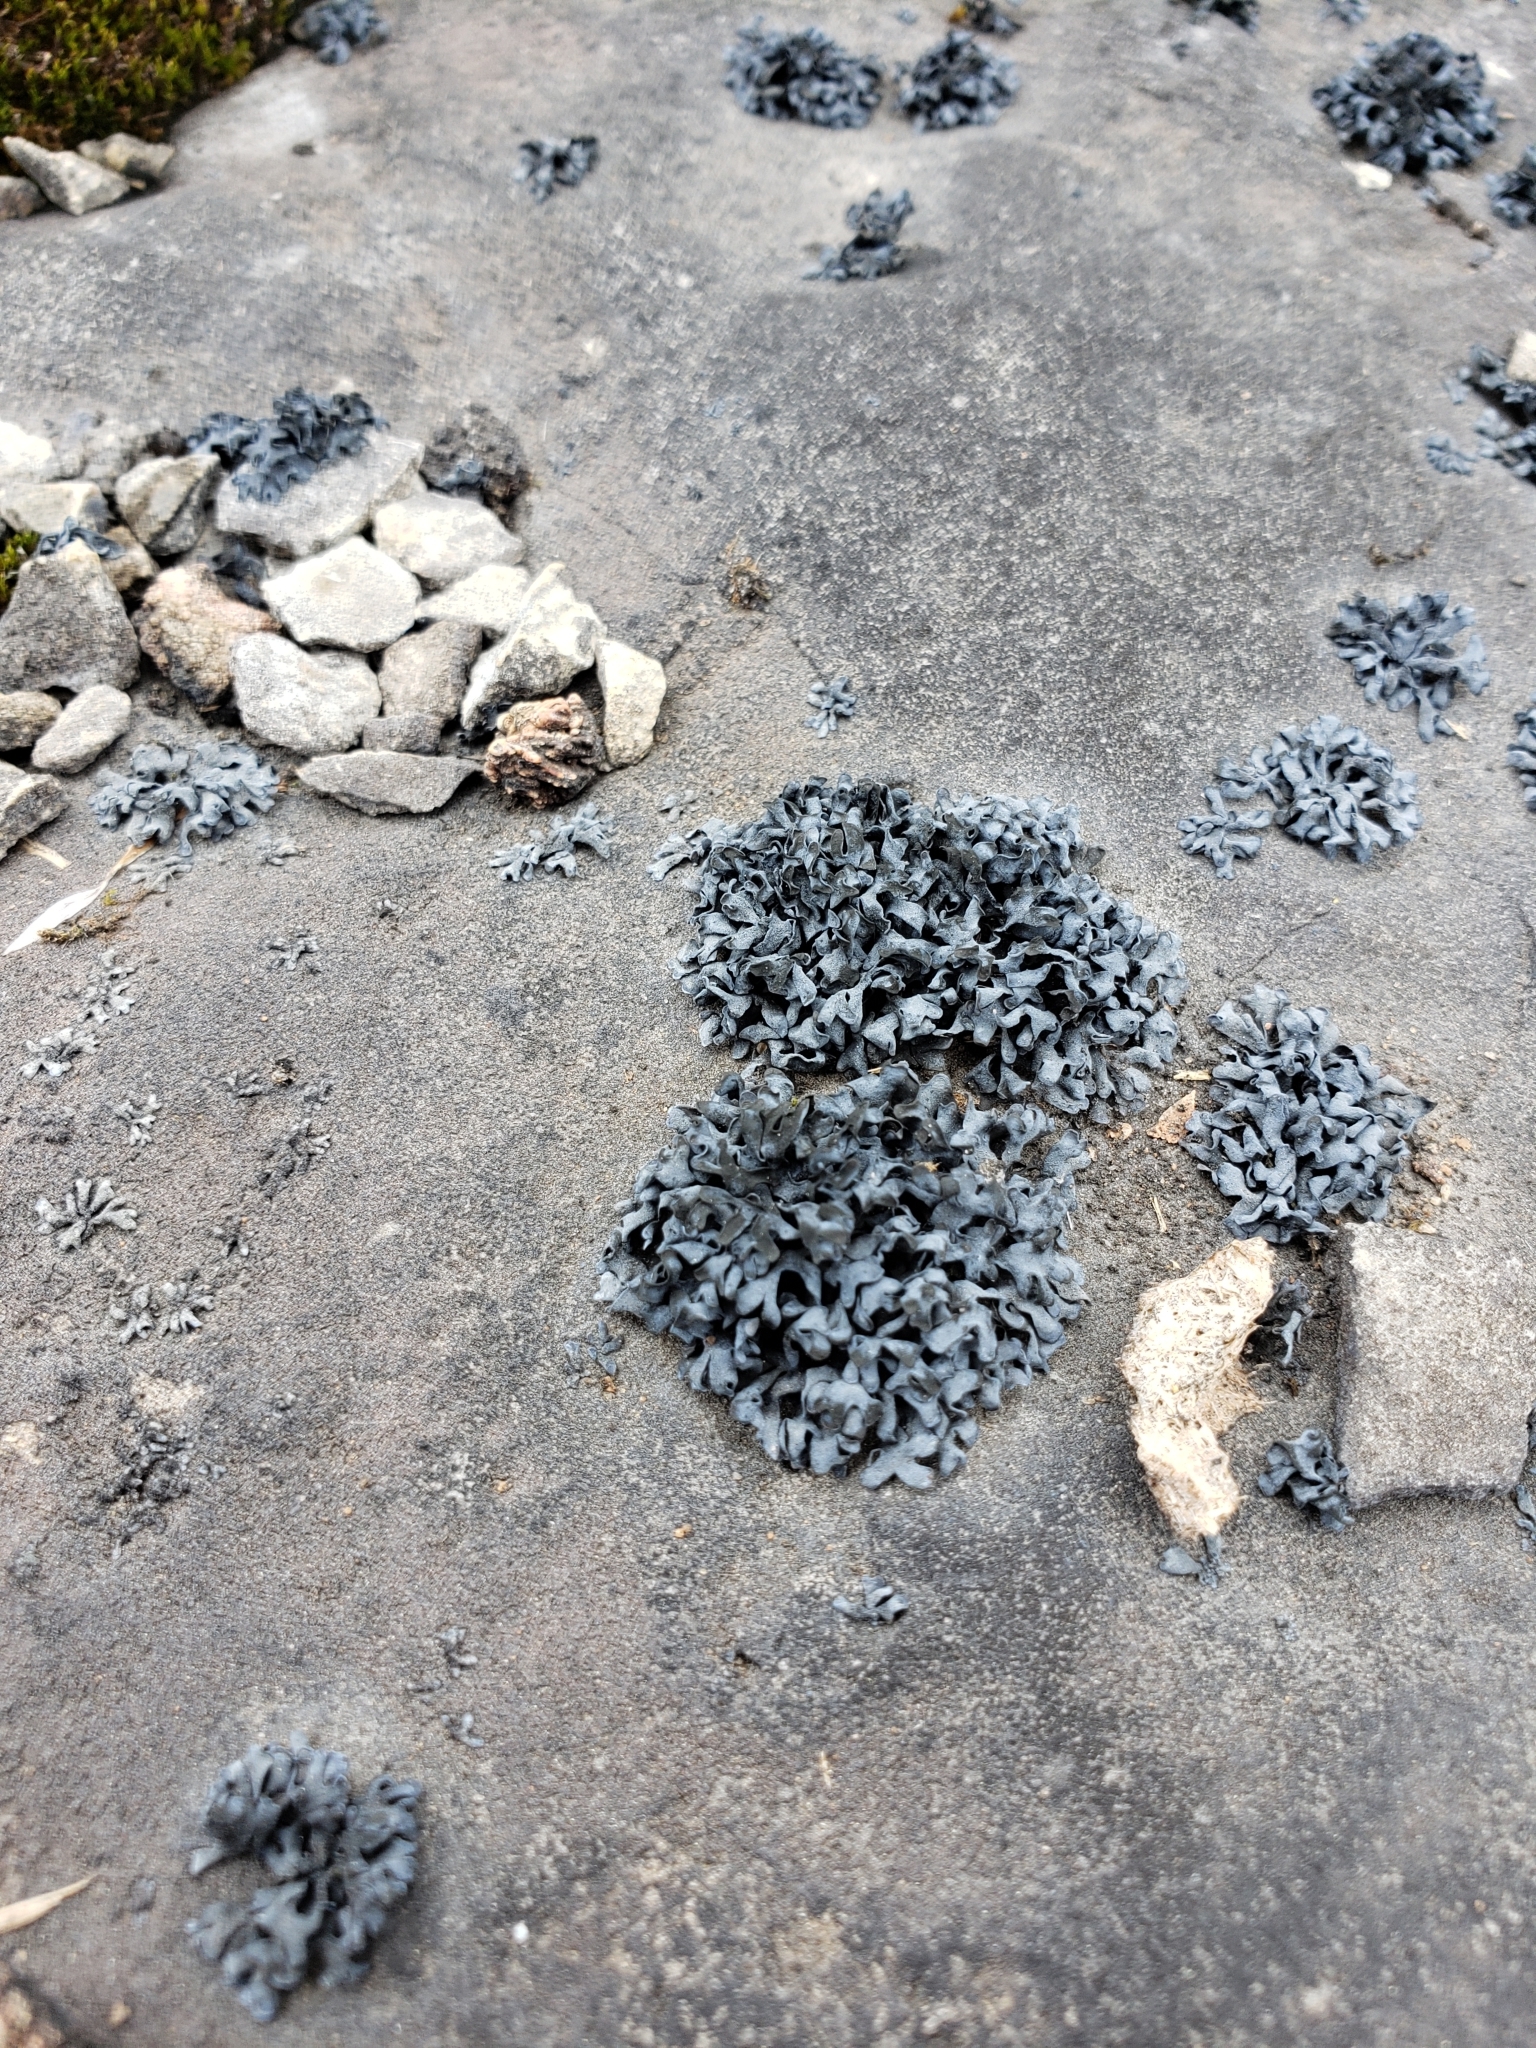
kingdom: Fungi
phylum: Ascomycota
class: Lichinomycetes
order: Lichinales
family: Lichinaceae
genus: Thyrea
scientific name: Thyrea confusa
